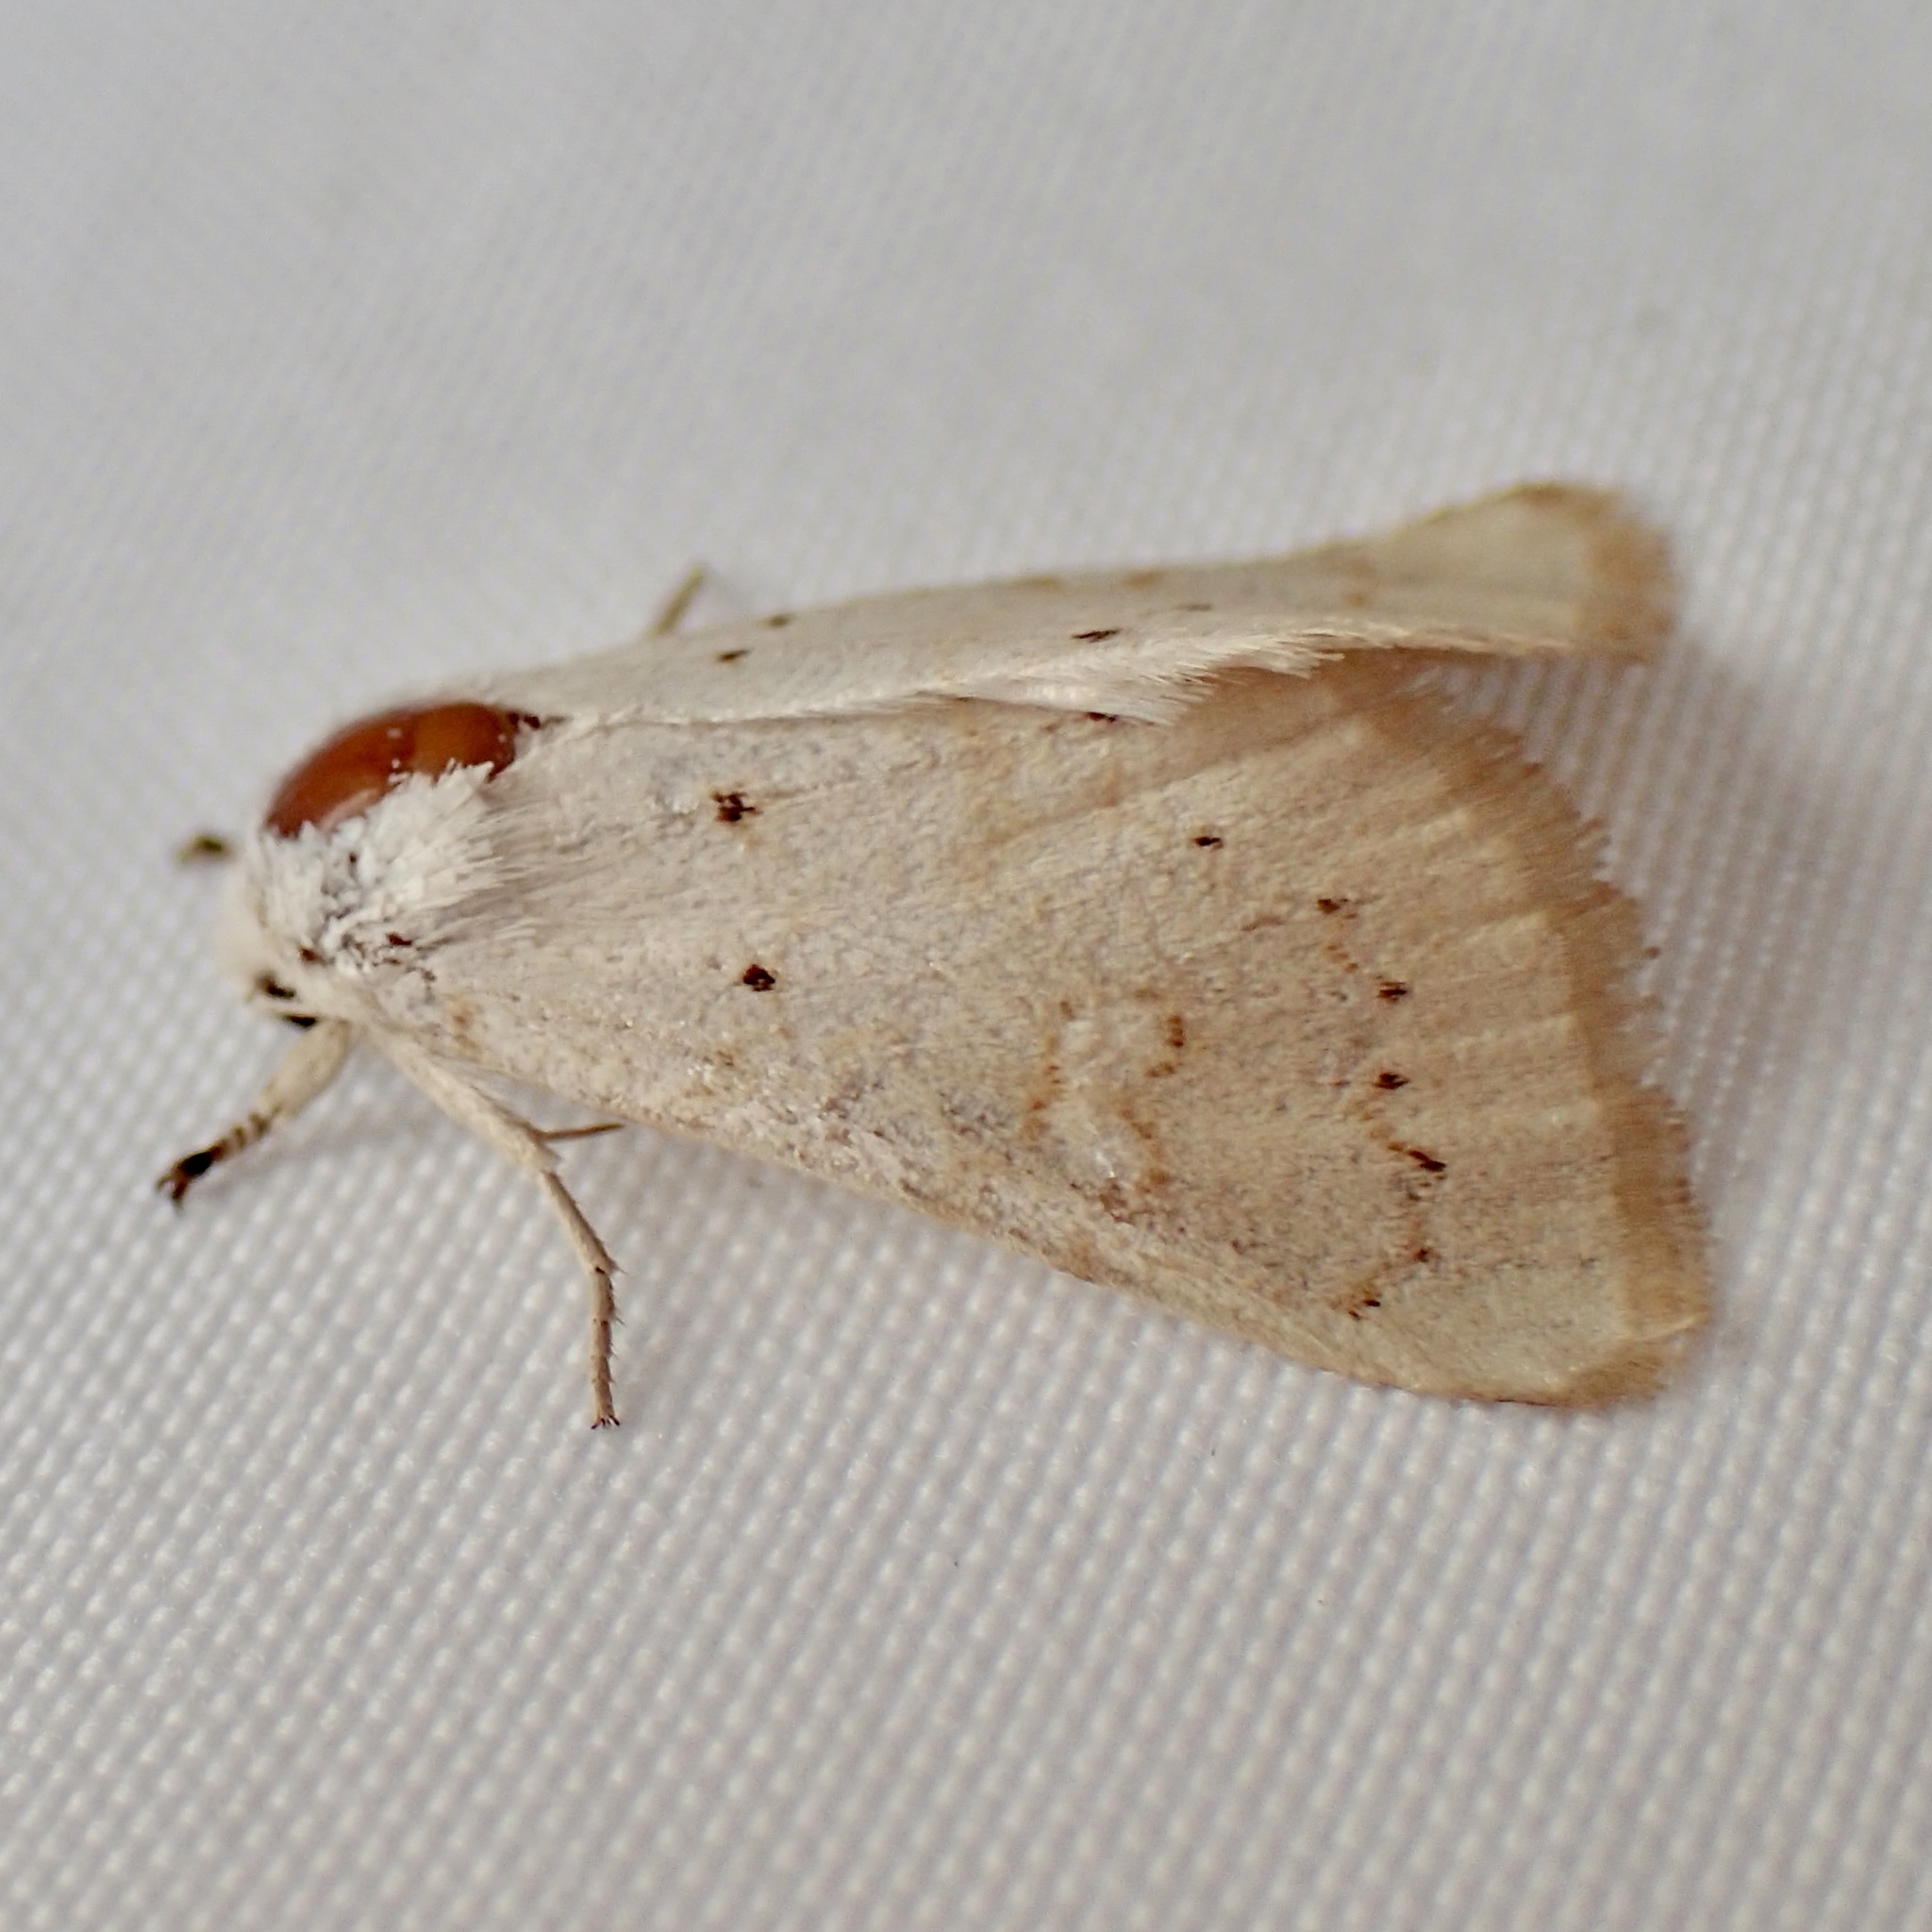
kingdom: Animalia
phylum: Arthropoda
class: Insecta
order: Lepidoptera
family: Noctuidae
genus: Oslaria
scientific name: Oslaria pura
